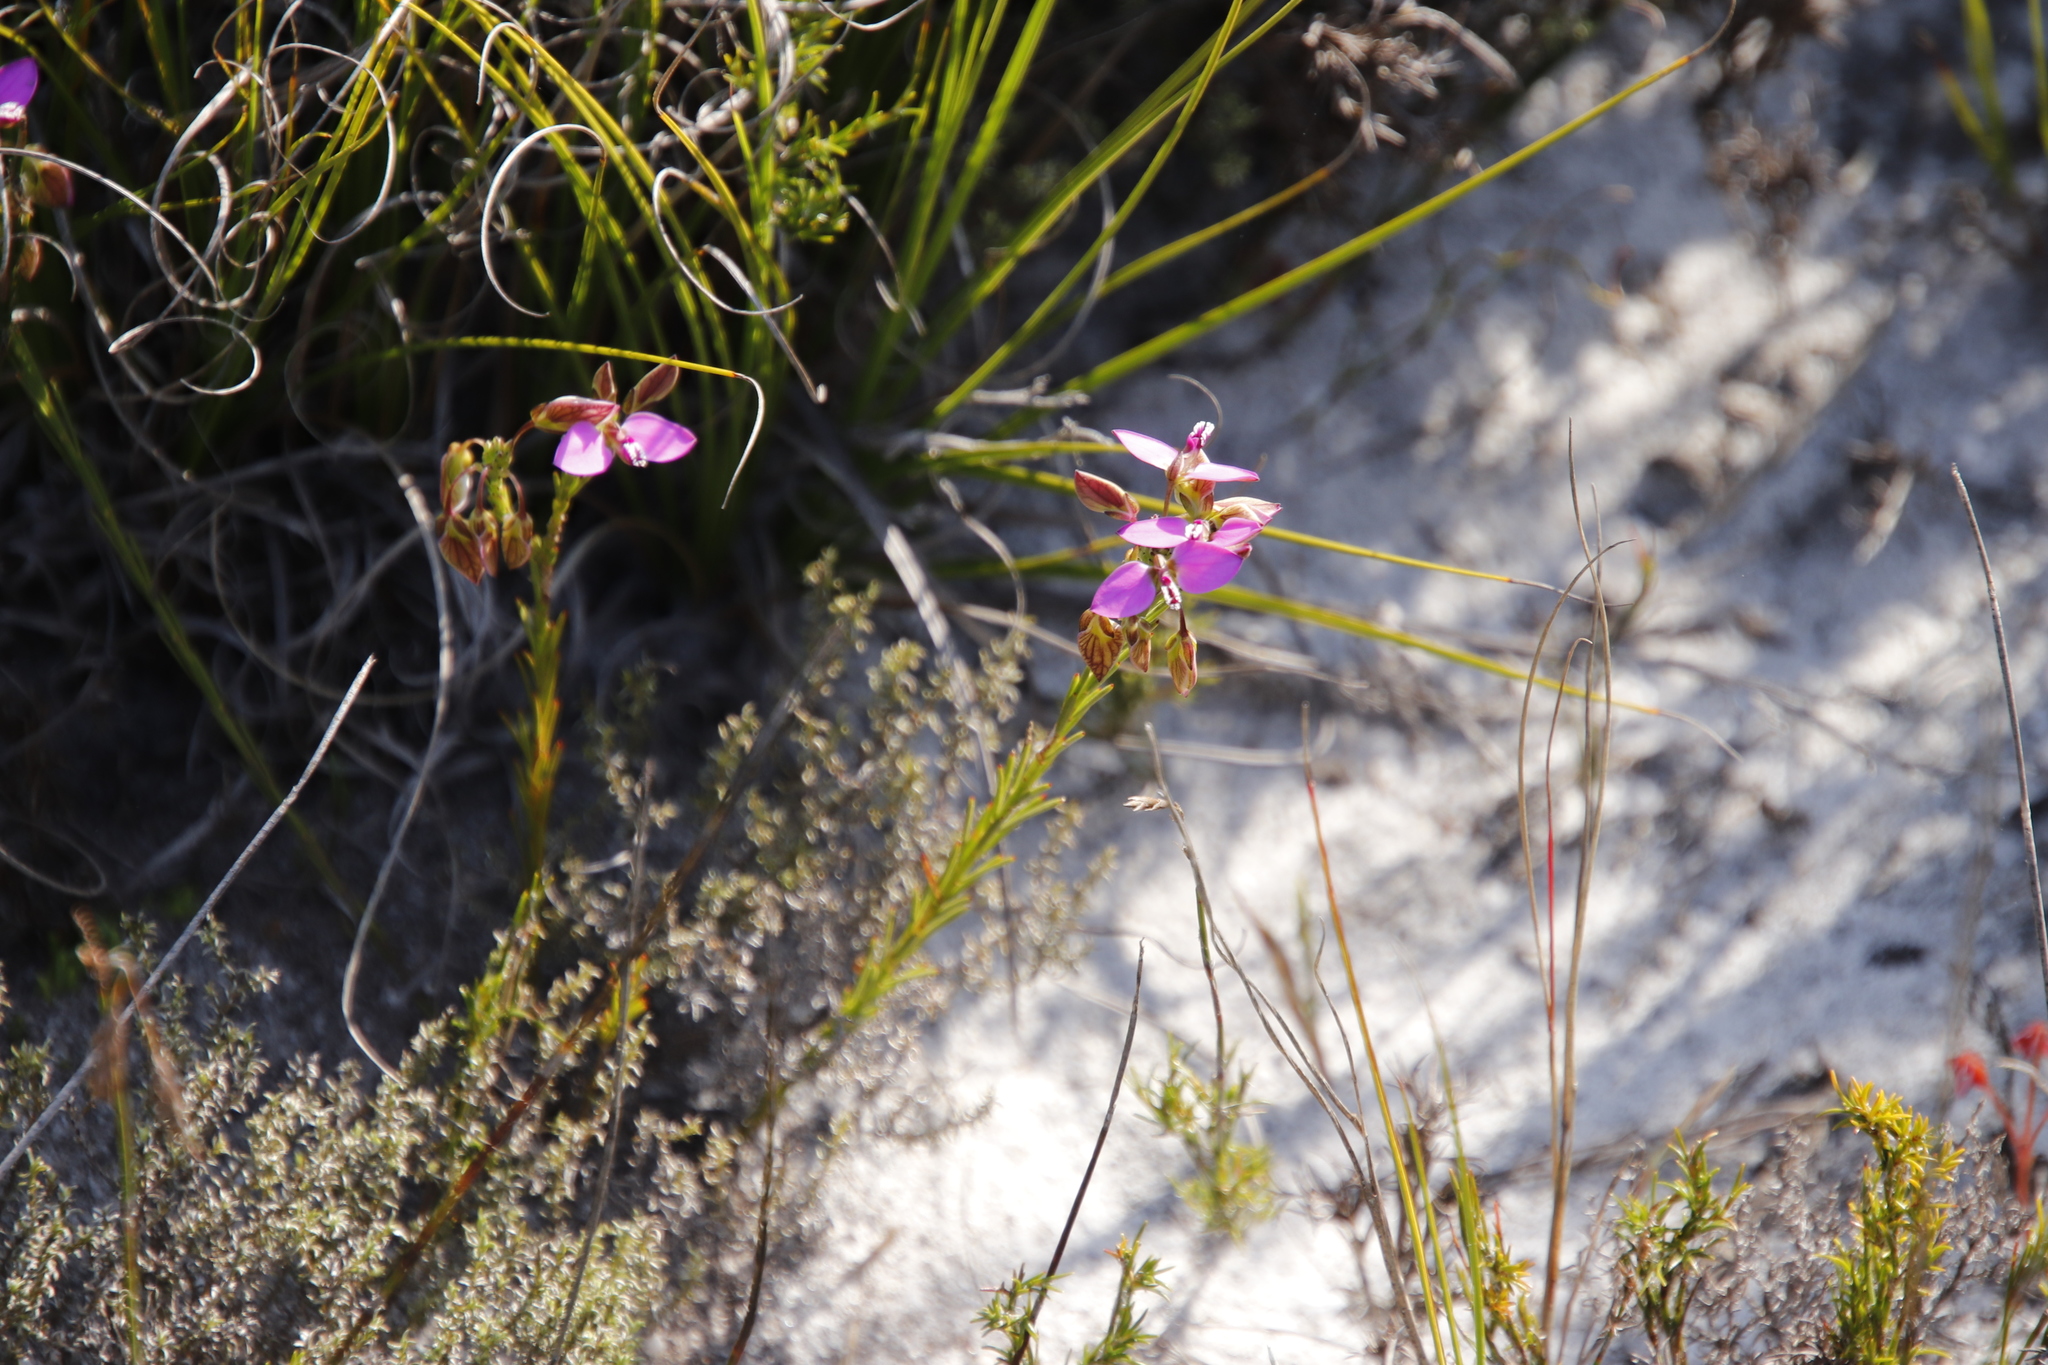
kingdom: Plantae
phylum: Tracheophyta
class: Magnoliopsida
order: Fabales
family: Polygalaceae
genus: Polygala
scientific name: Polygala recognita
